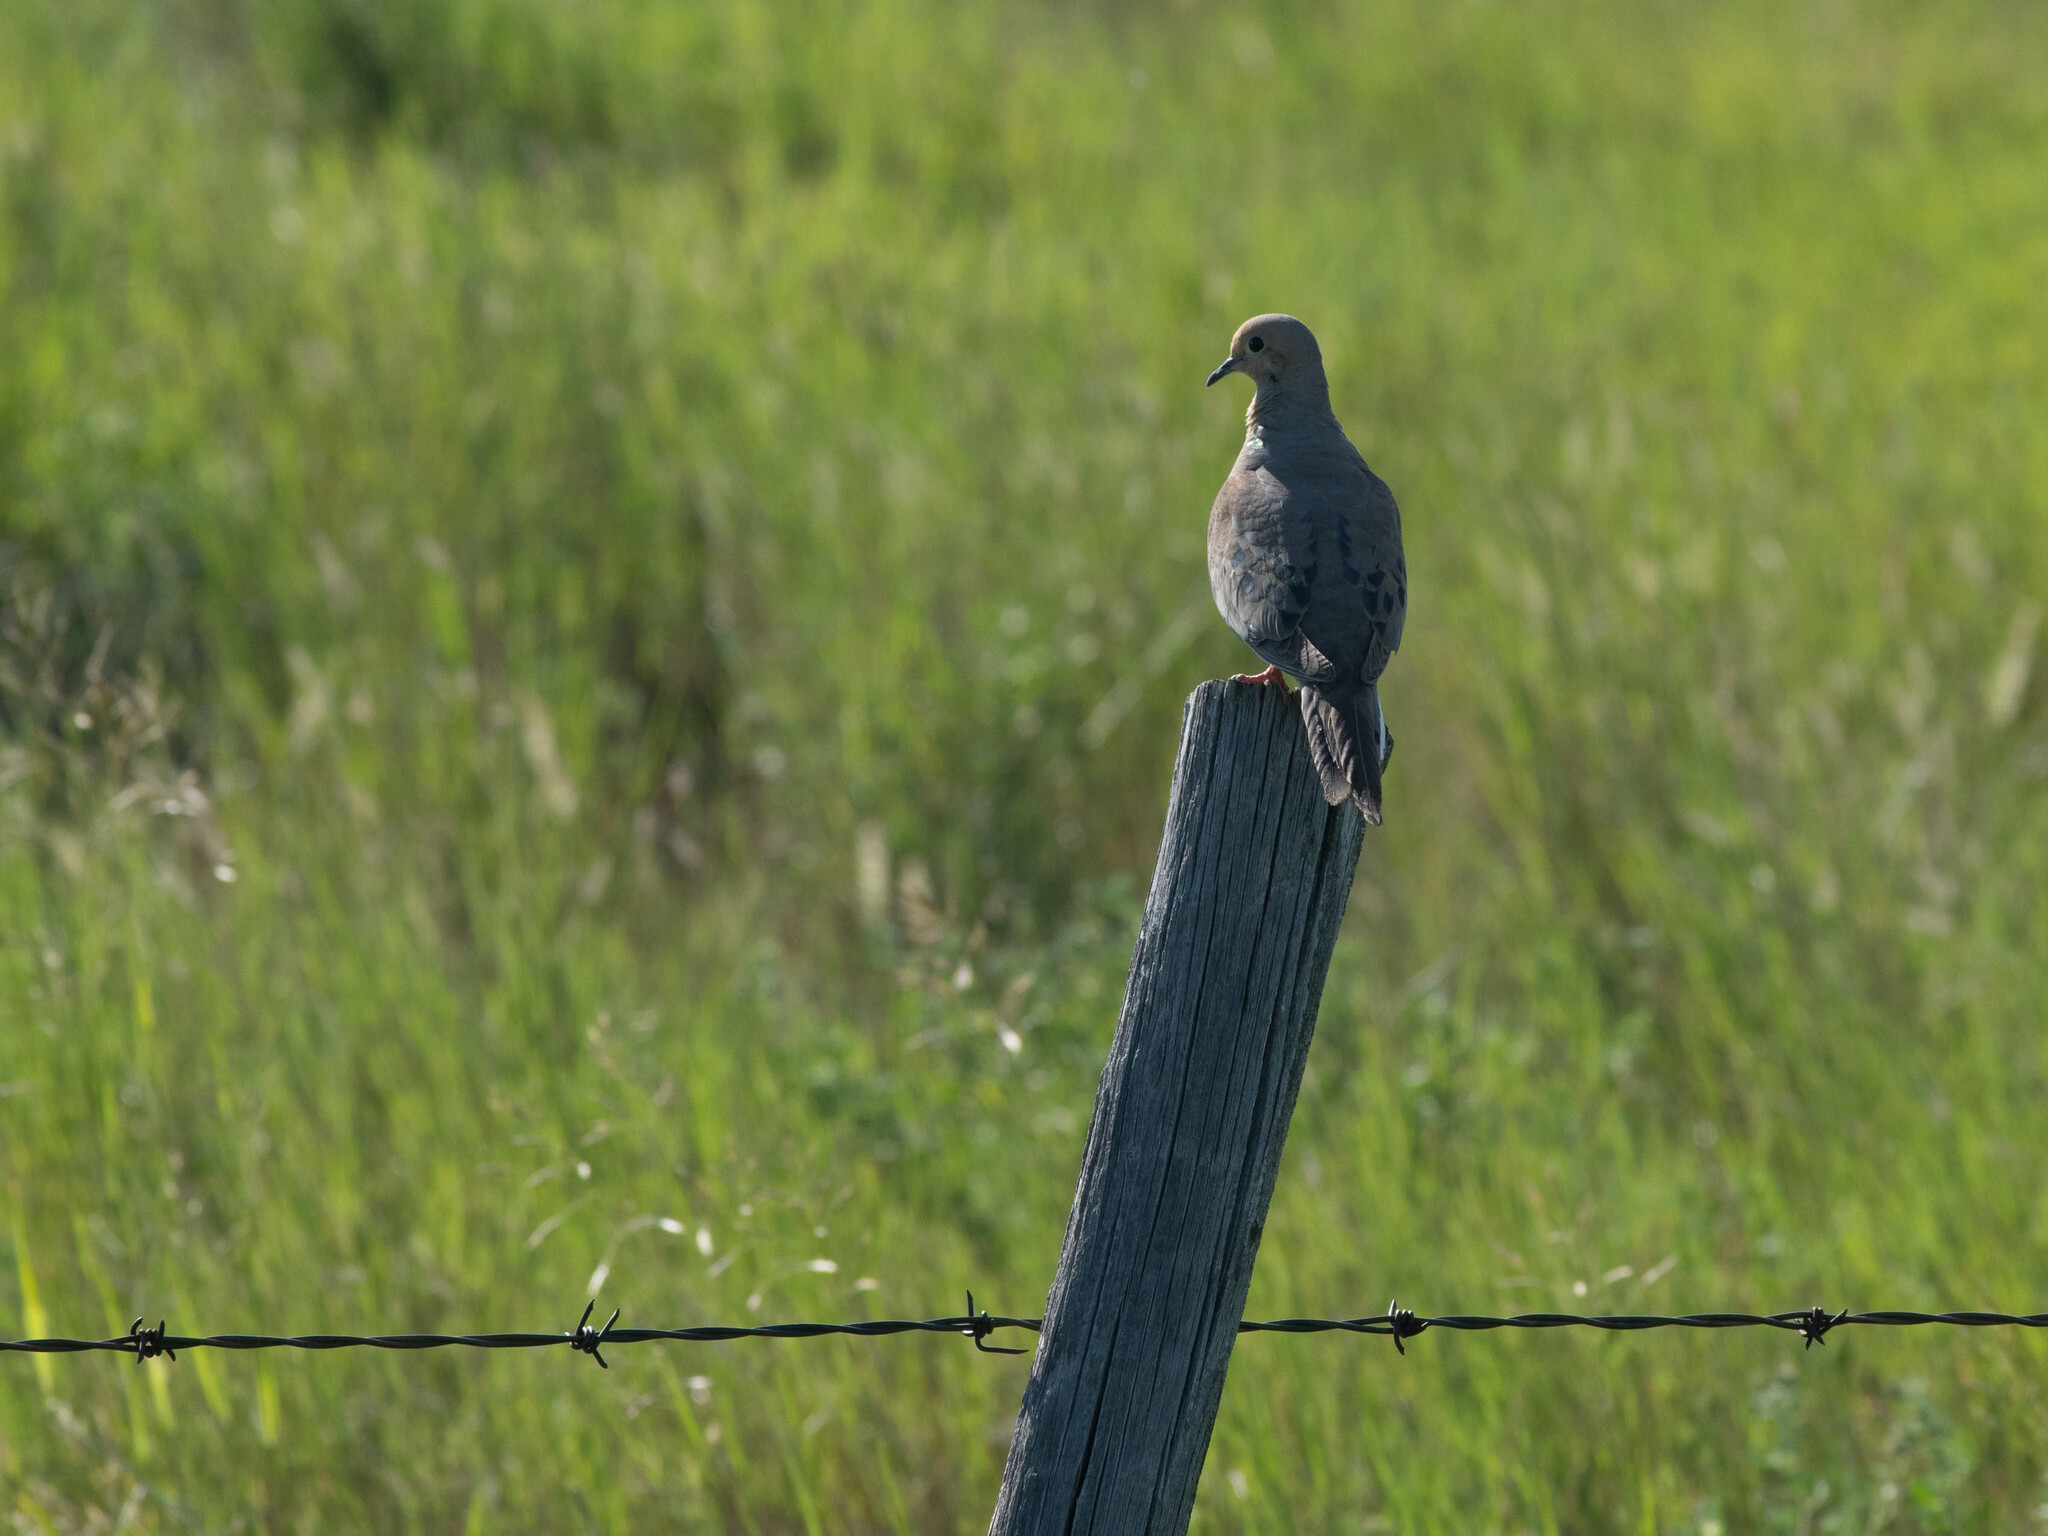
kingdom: Animalia
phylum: Chordata
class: Aves
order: Columbiformes
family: Columbidae
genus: Zenaida
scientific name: Zenaida macroura
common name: Mourning dove
